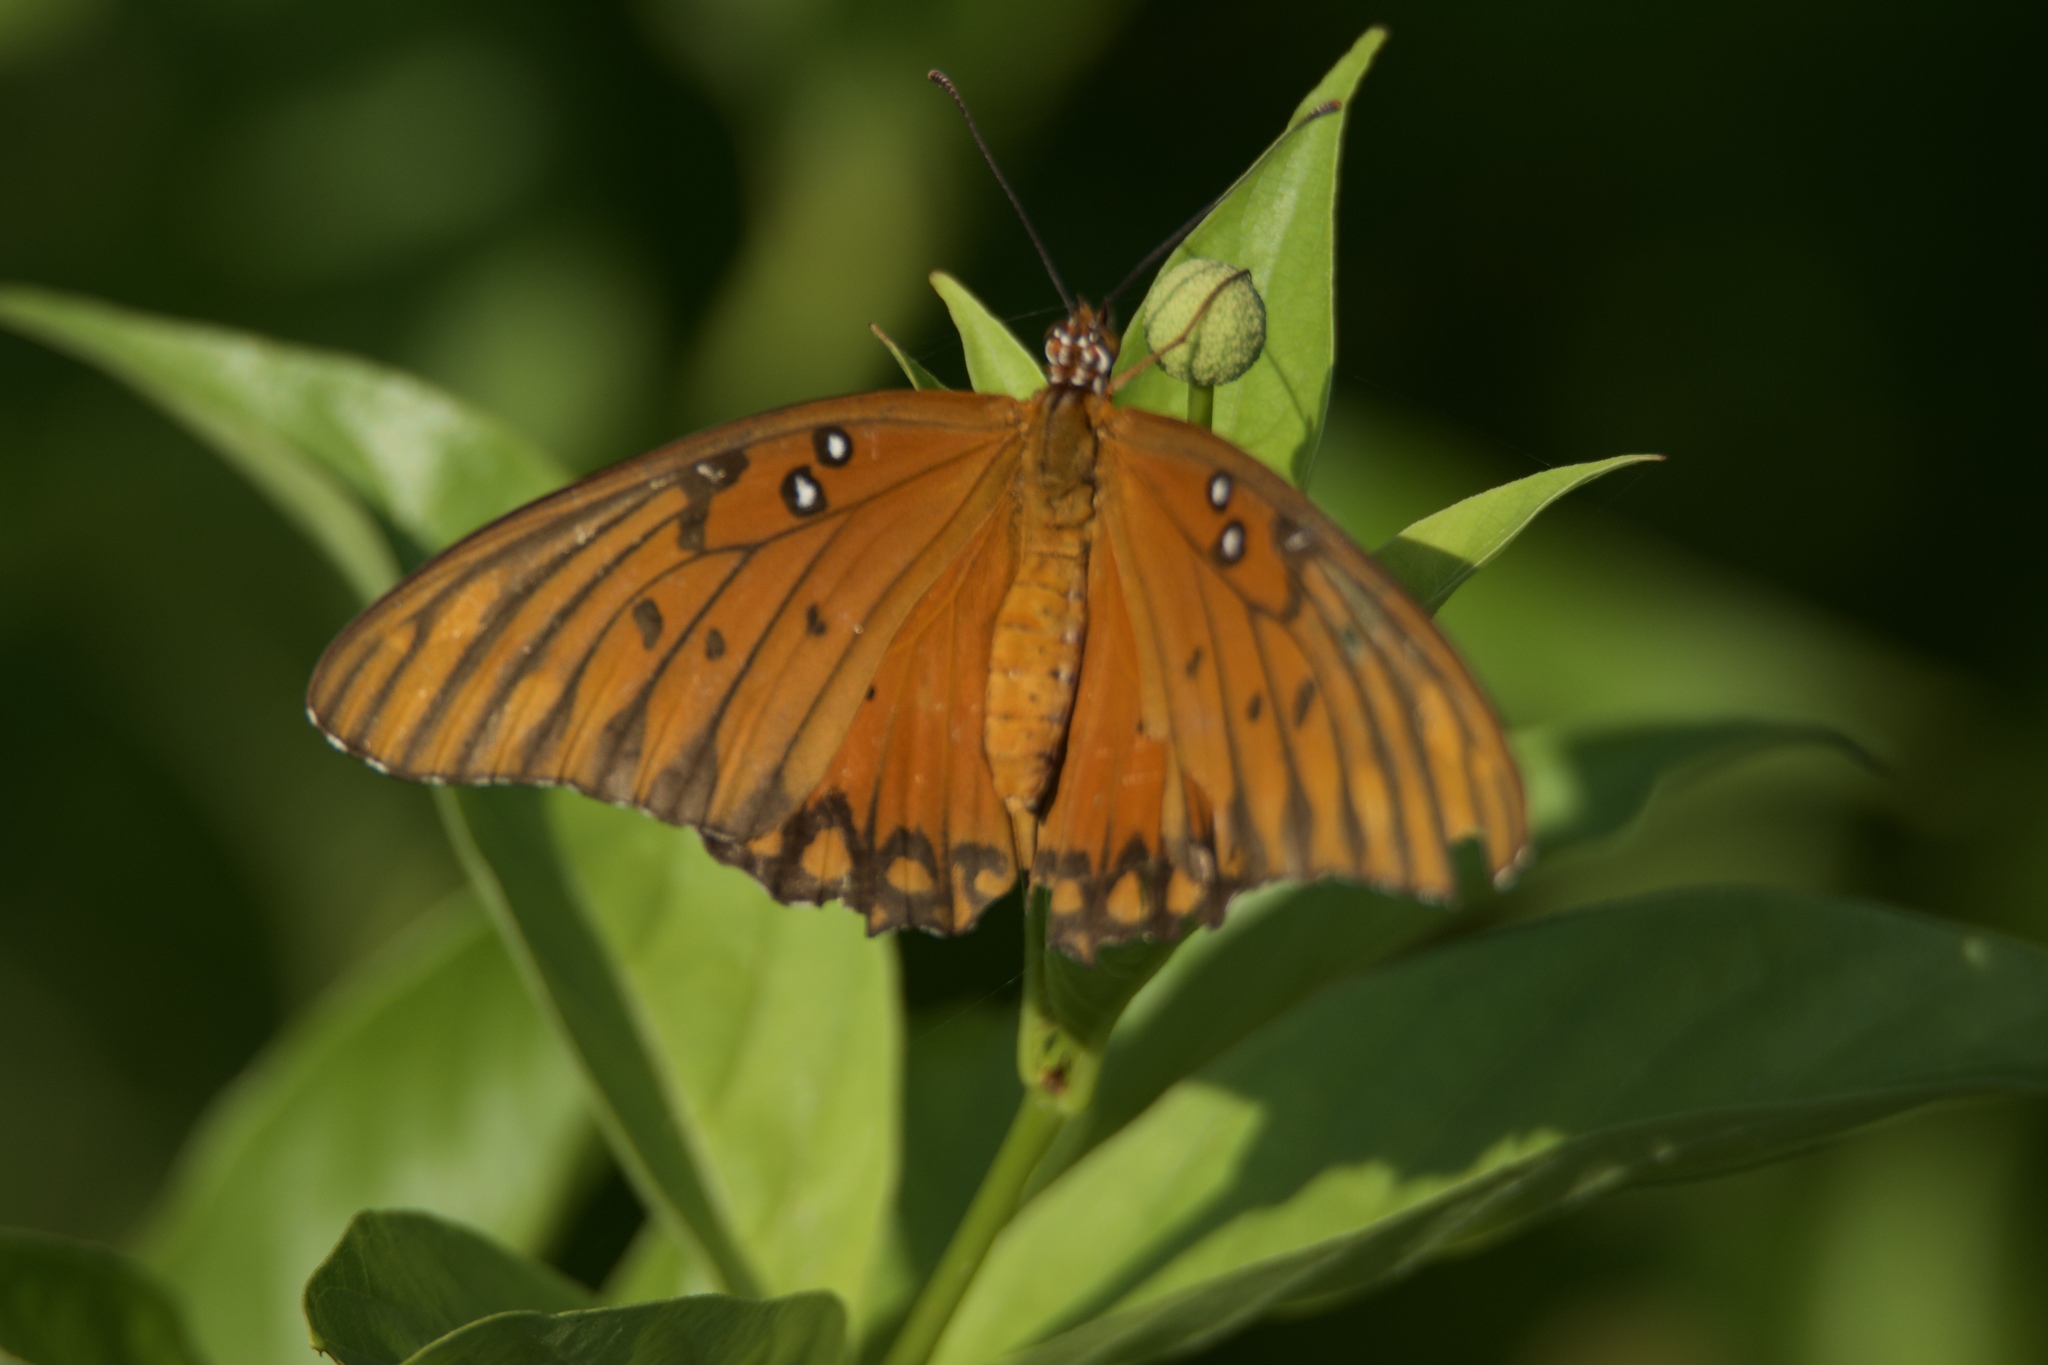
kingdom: Animalia
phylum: Arthropoda
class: Insecta
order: Lepidoptera
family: Nymphalidae
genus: Dione
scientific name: Dione vanillae
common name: Gulf fritillary
